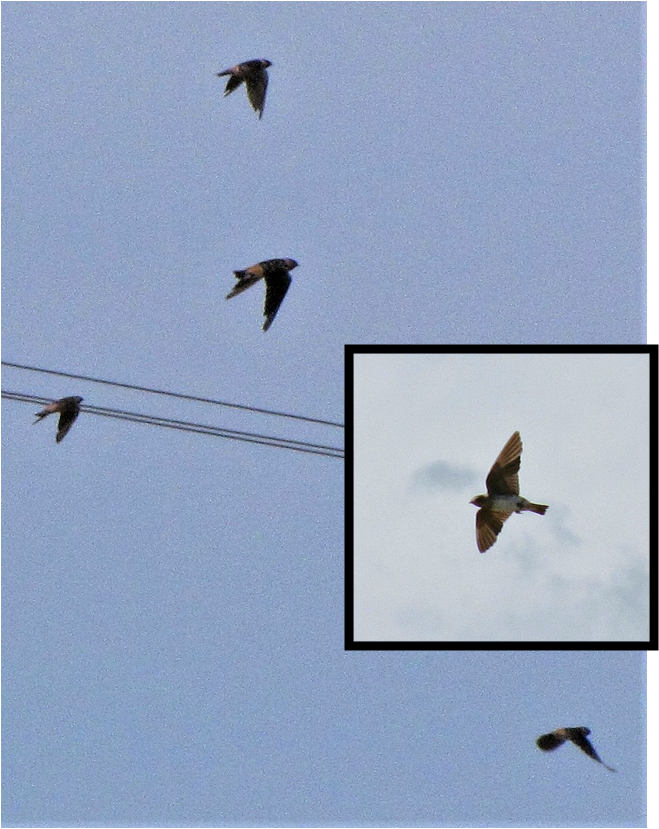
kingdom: Animalia
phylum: Chordata
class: Aves
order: Passeriformes
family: Hirundinidae
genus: Petrochelidon
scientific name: Petrochelidon pyrrhonota
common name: American cliff swallow
